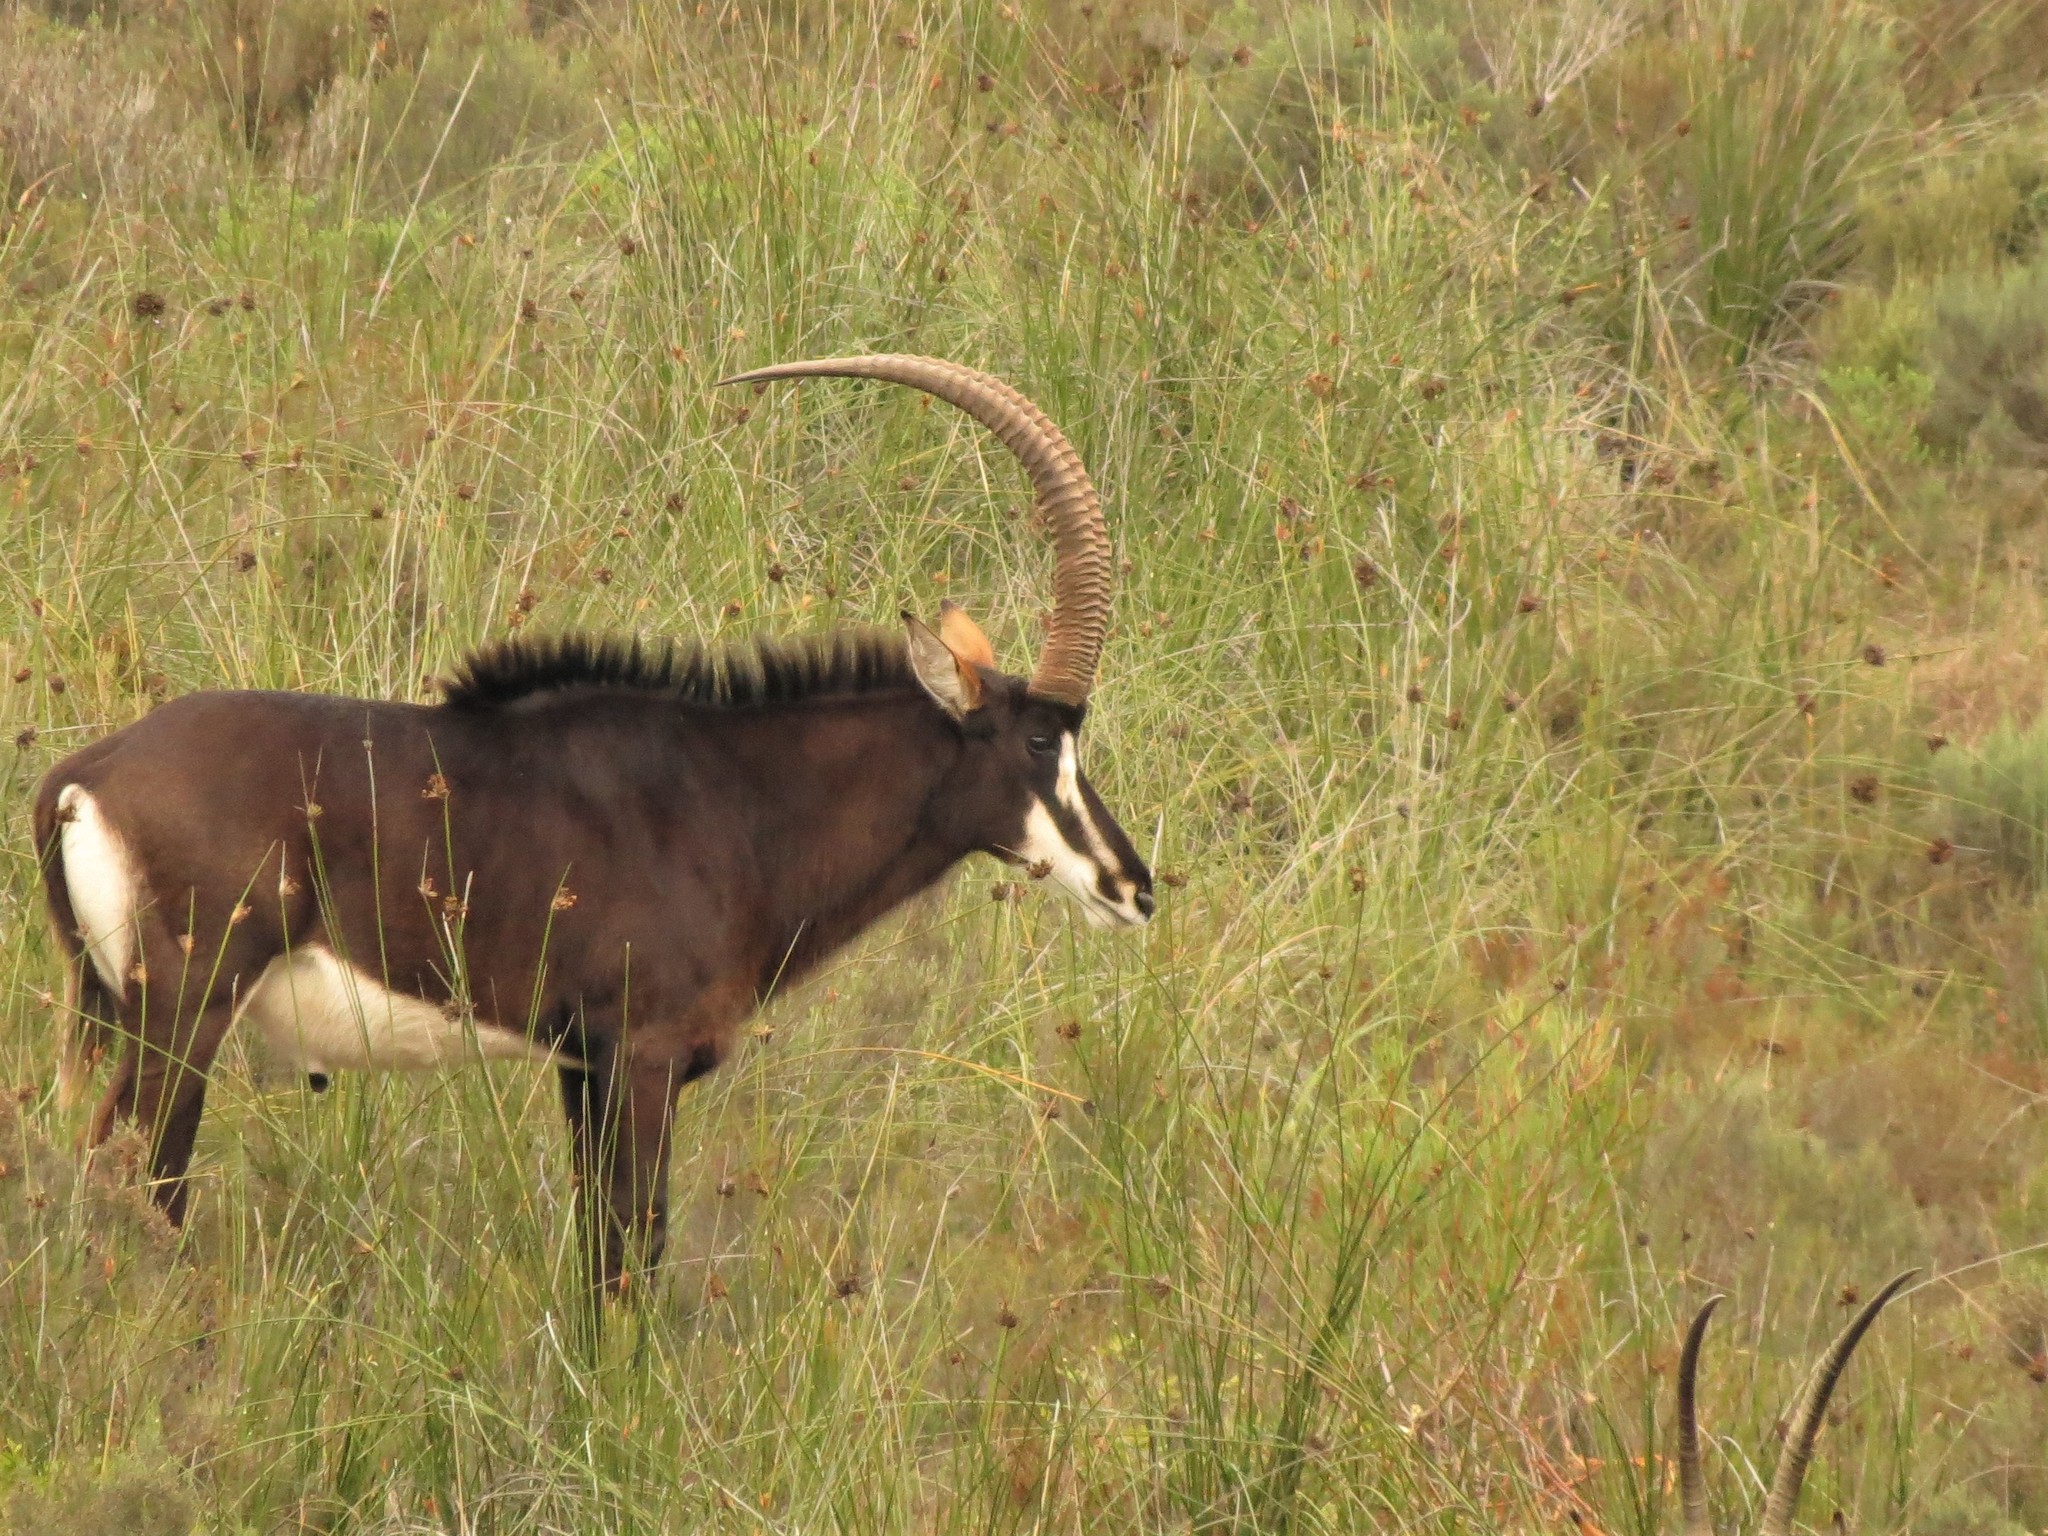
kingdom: Animalia
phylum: Chordata
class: Mammalia
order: Artiodactyla
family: Bovidae
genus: Hippotragus
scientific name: Hippotragus niger
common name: Sable antelope
